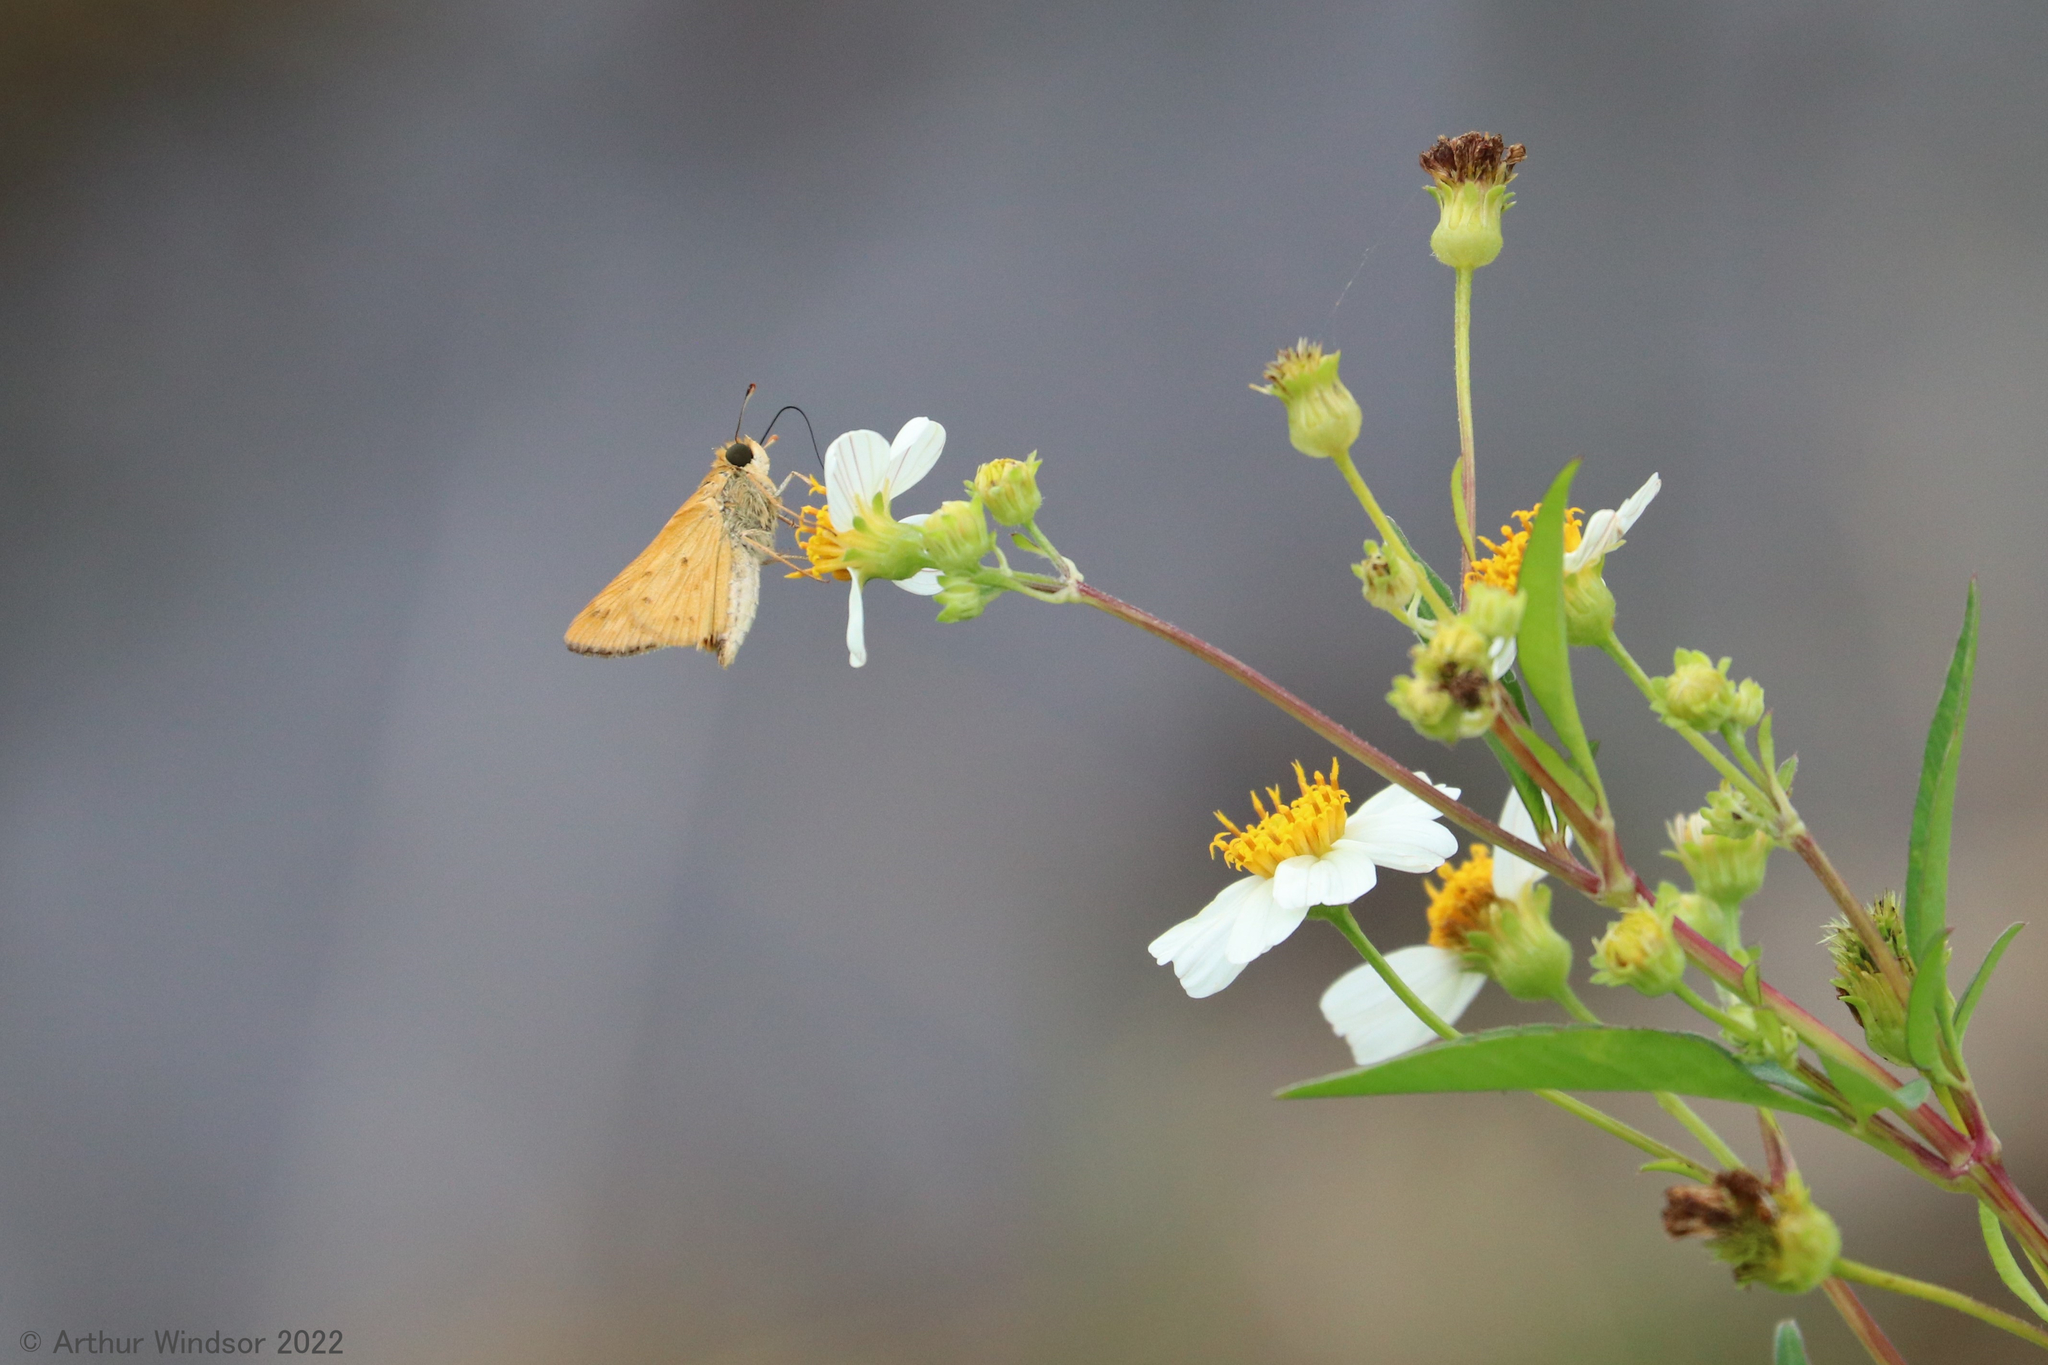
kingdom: Animalia
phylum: Arthropoda
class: Insecta
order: Lepidoptera
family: Hesperiidae
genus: Hylephila
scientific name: Hylephila phyleus
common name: Fiery skipper
